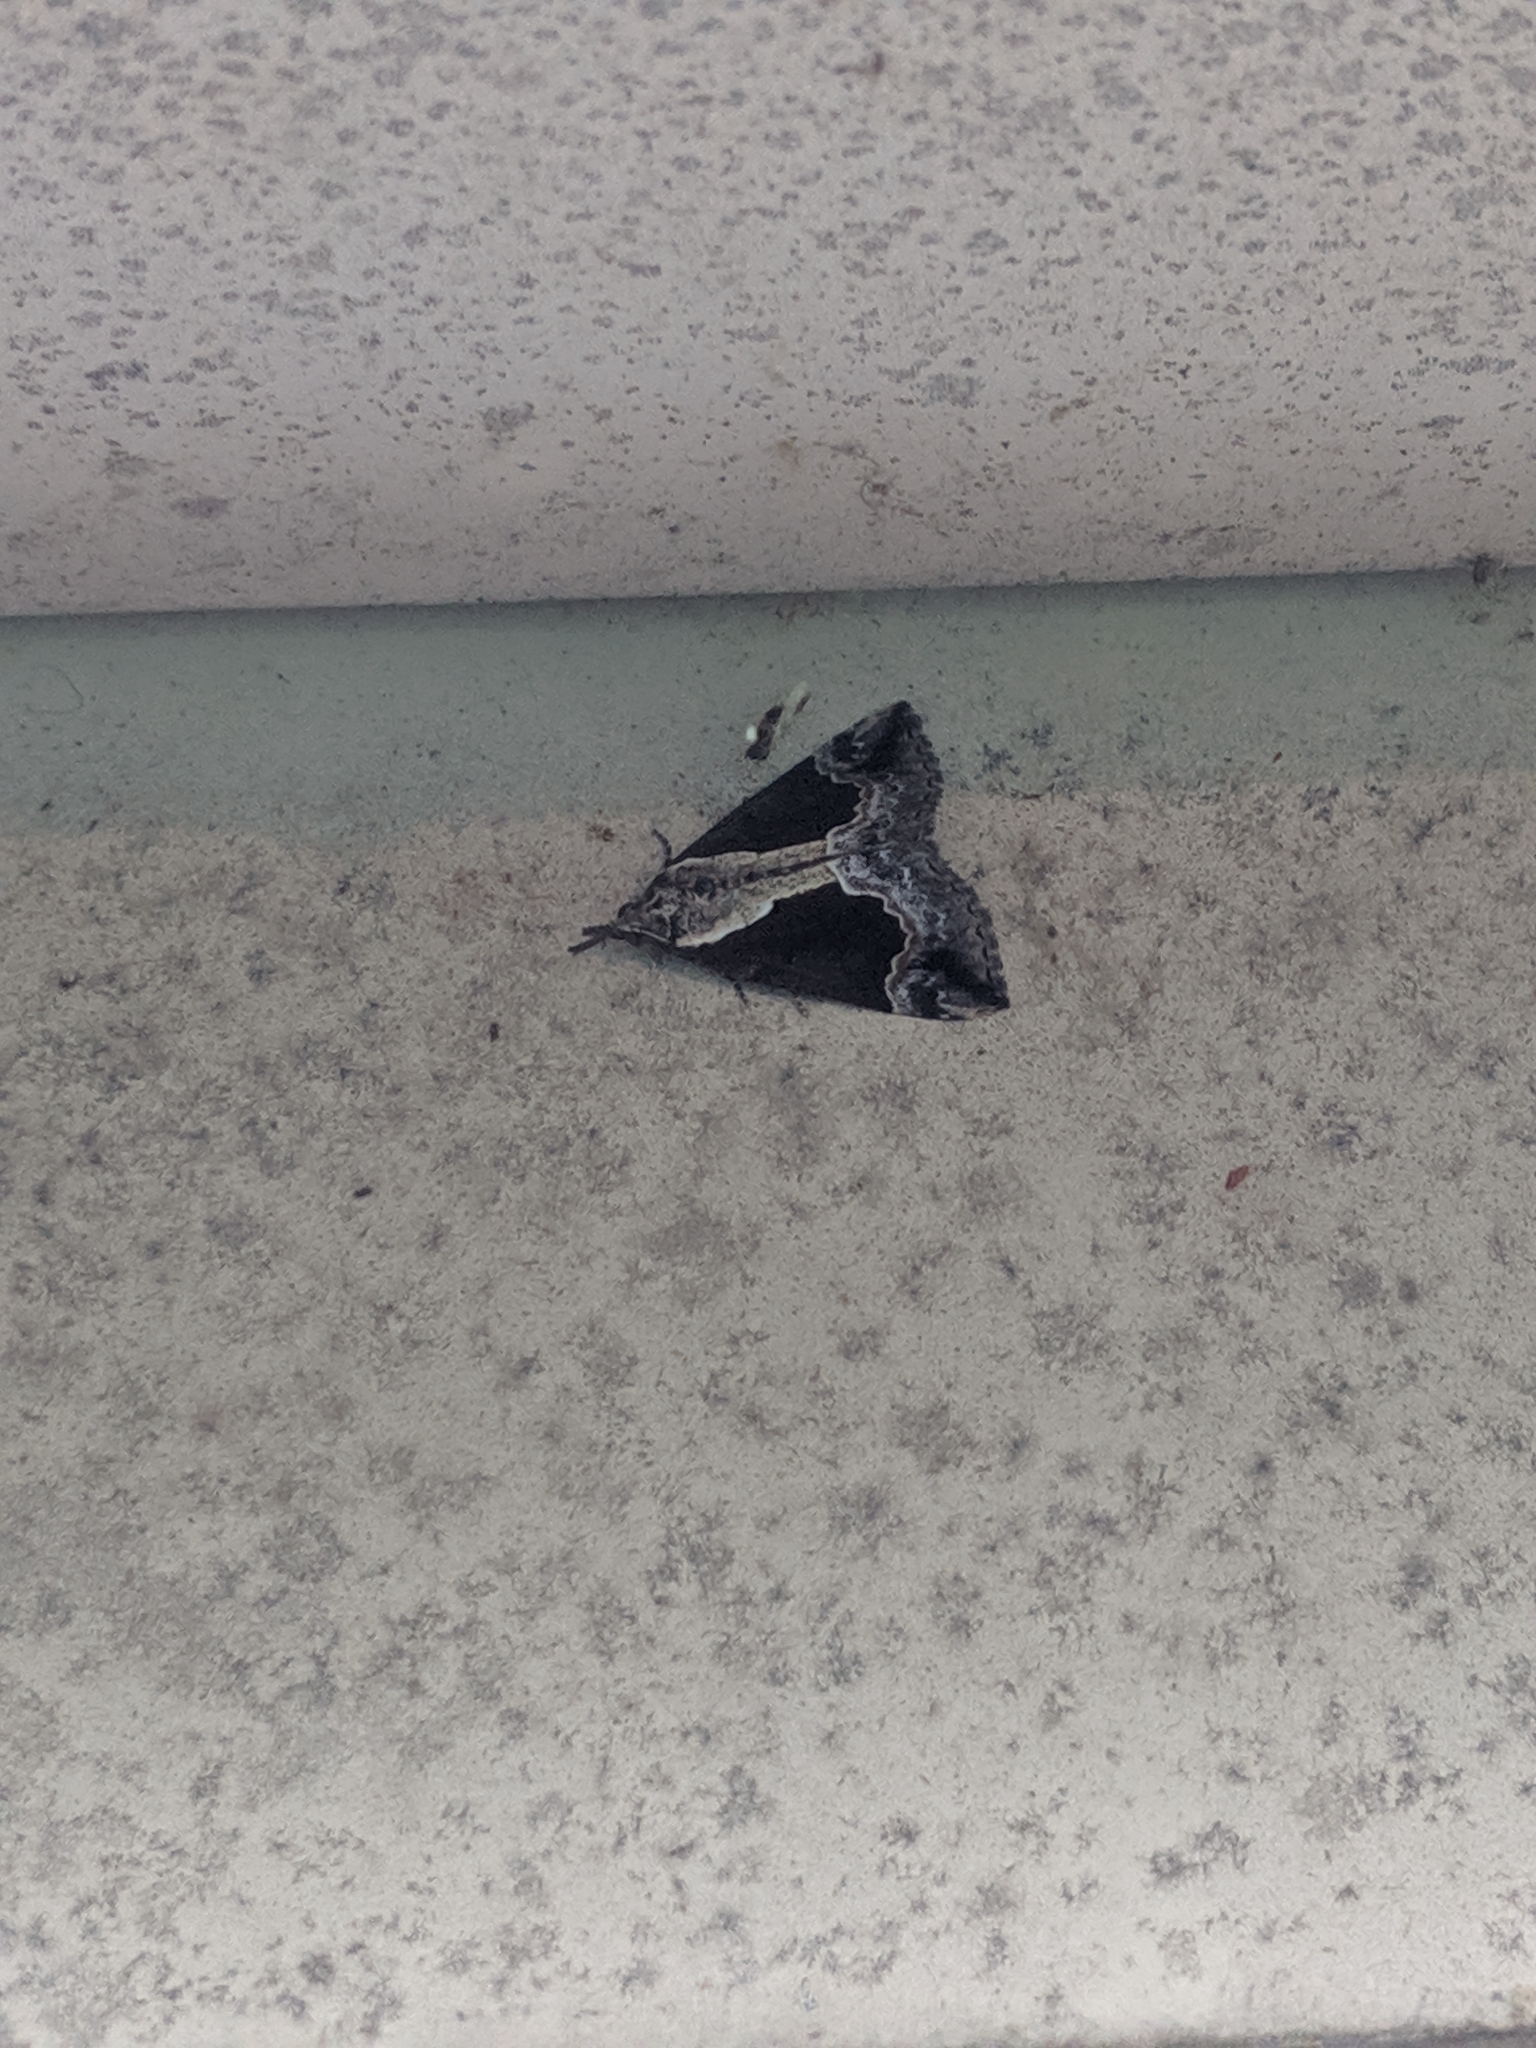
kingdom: Animalia
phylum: Arthropoda
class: Insecta
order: Lepidoptera
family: Erebidae
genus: Hypena
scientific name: Hypena baltimoralis
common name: Baltimore snout
